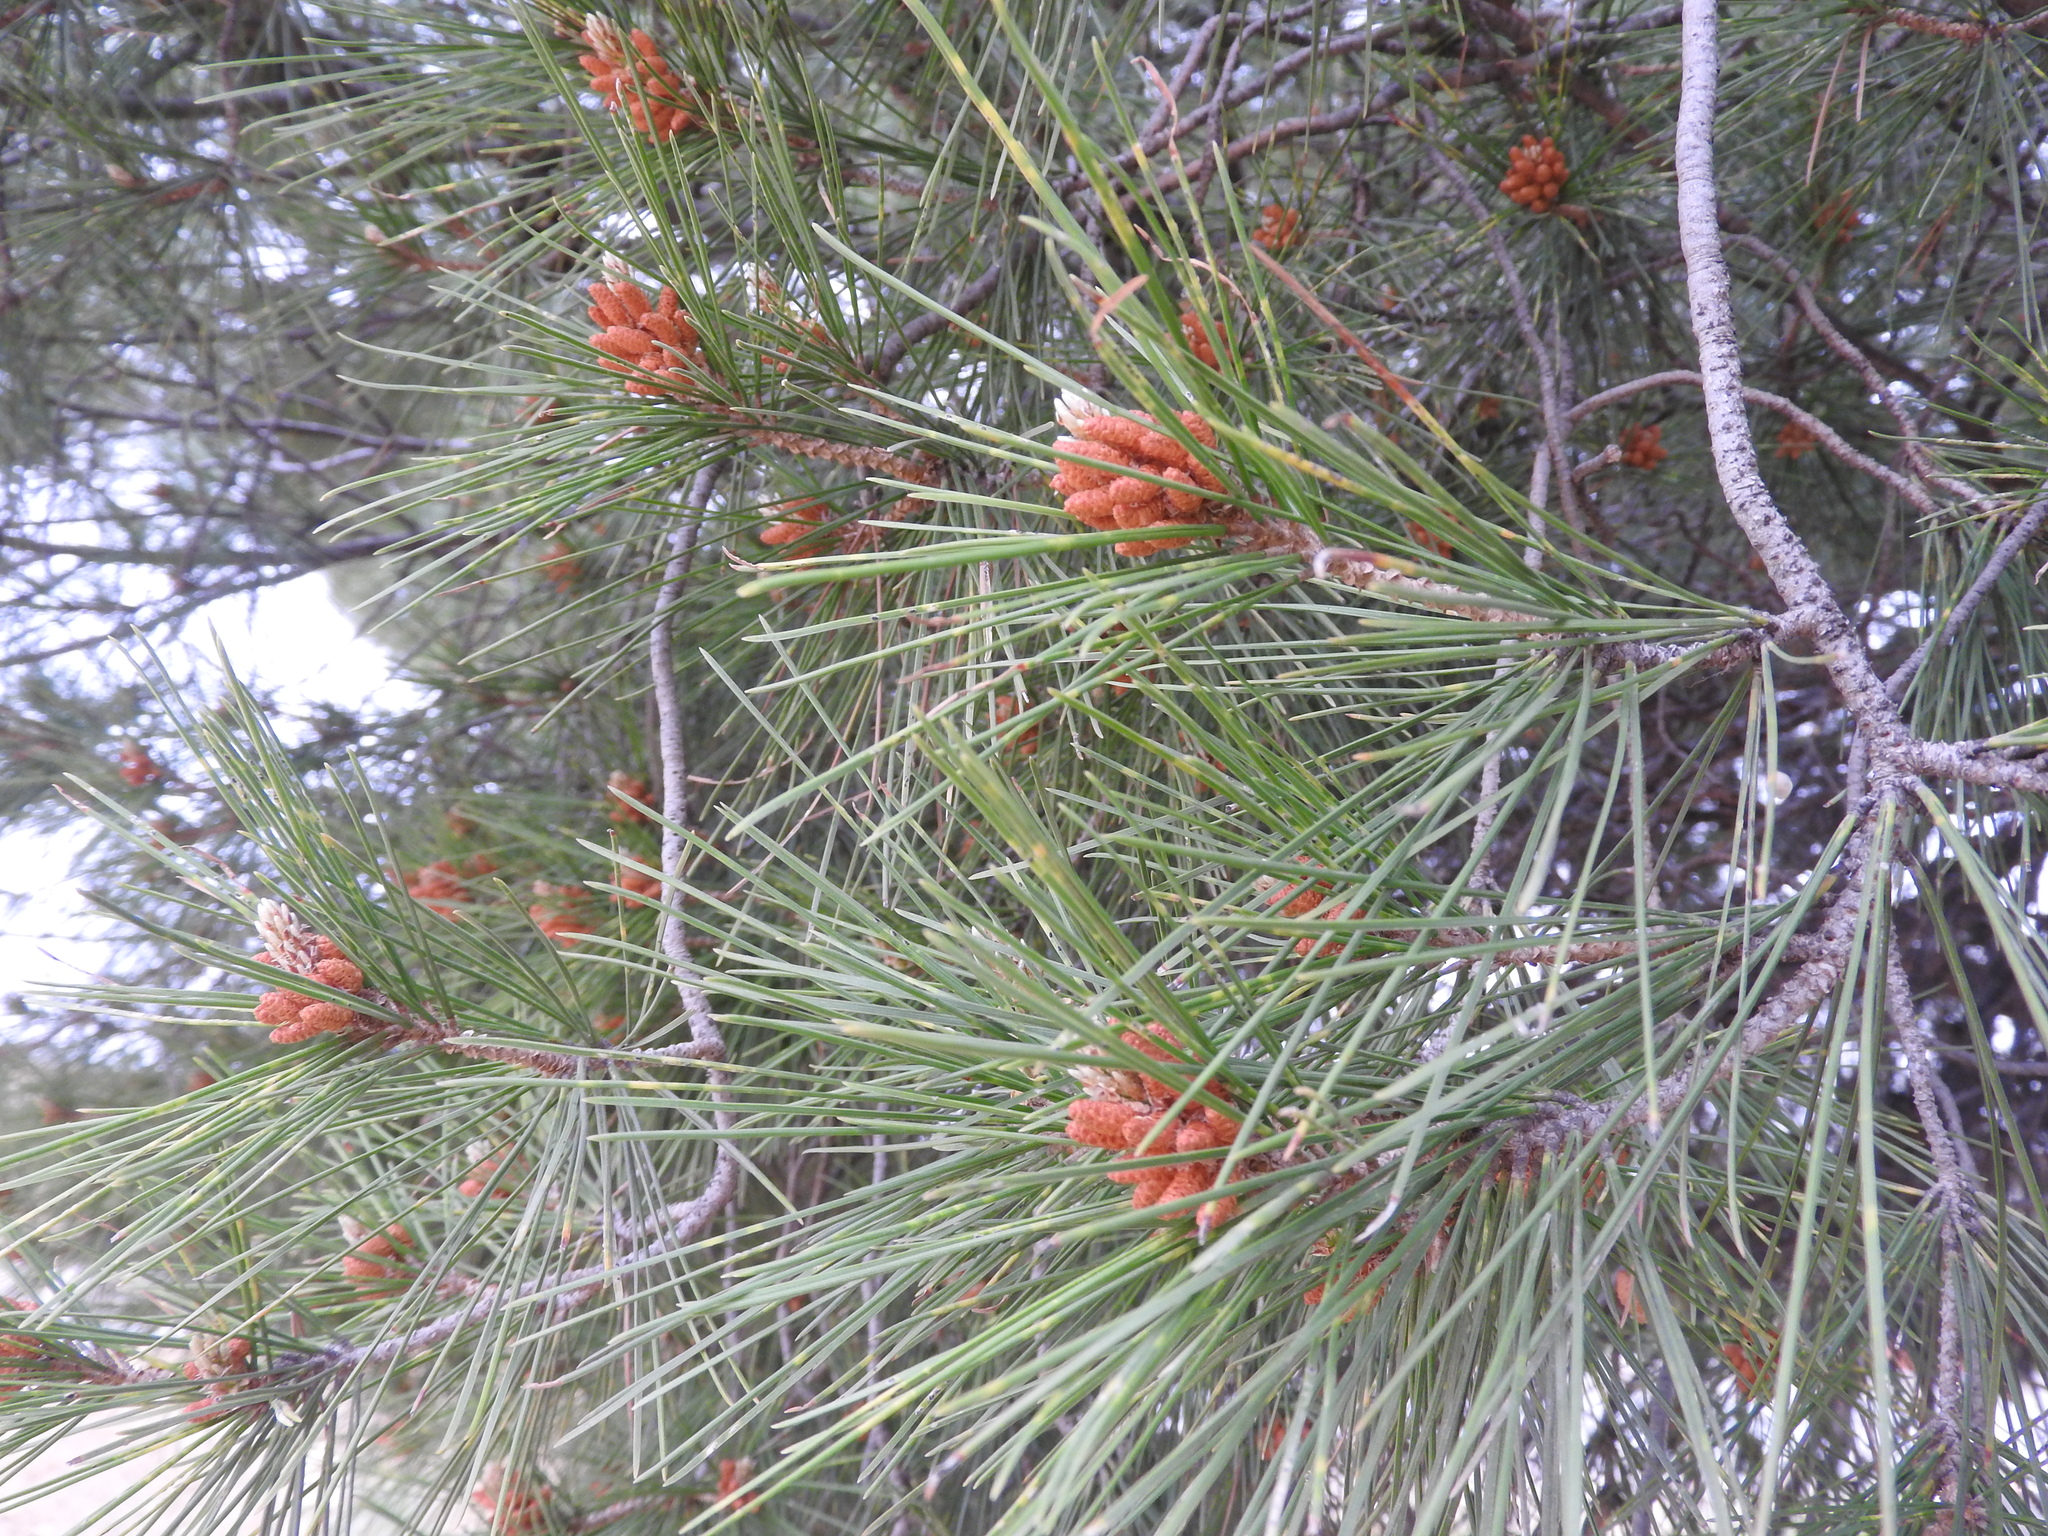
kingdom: Plantae
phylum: Tracheophyta
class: Pinopsida
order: Pinales
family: Pinaceae
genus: Pinus
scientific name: Pinus halepensis
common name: Aleppo pine
